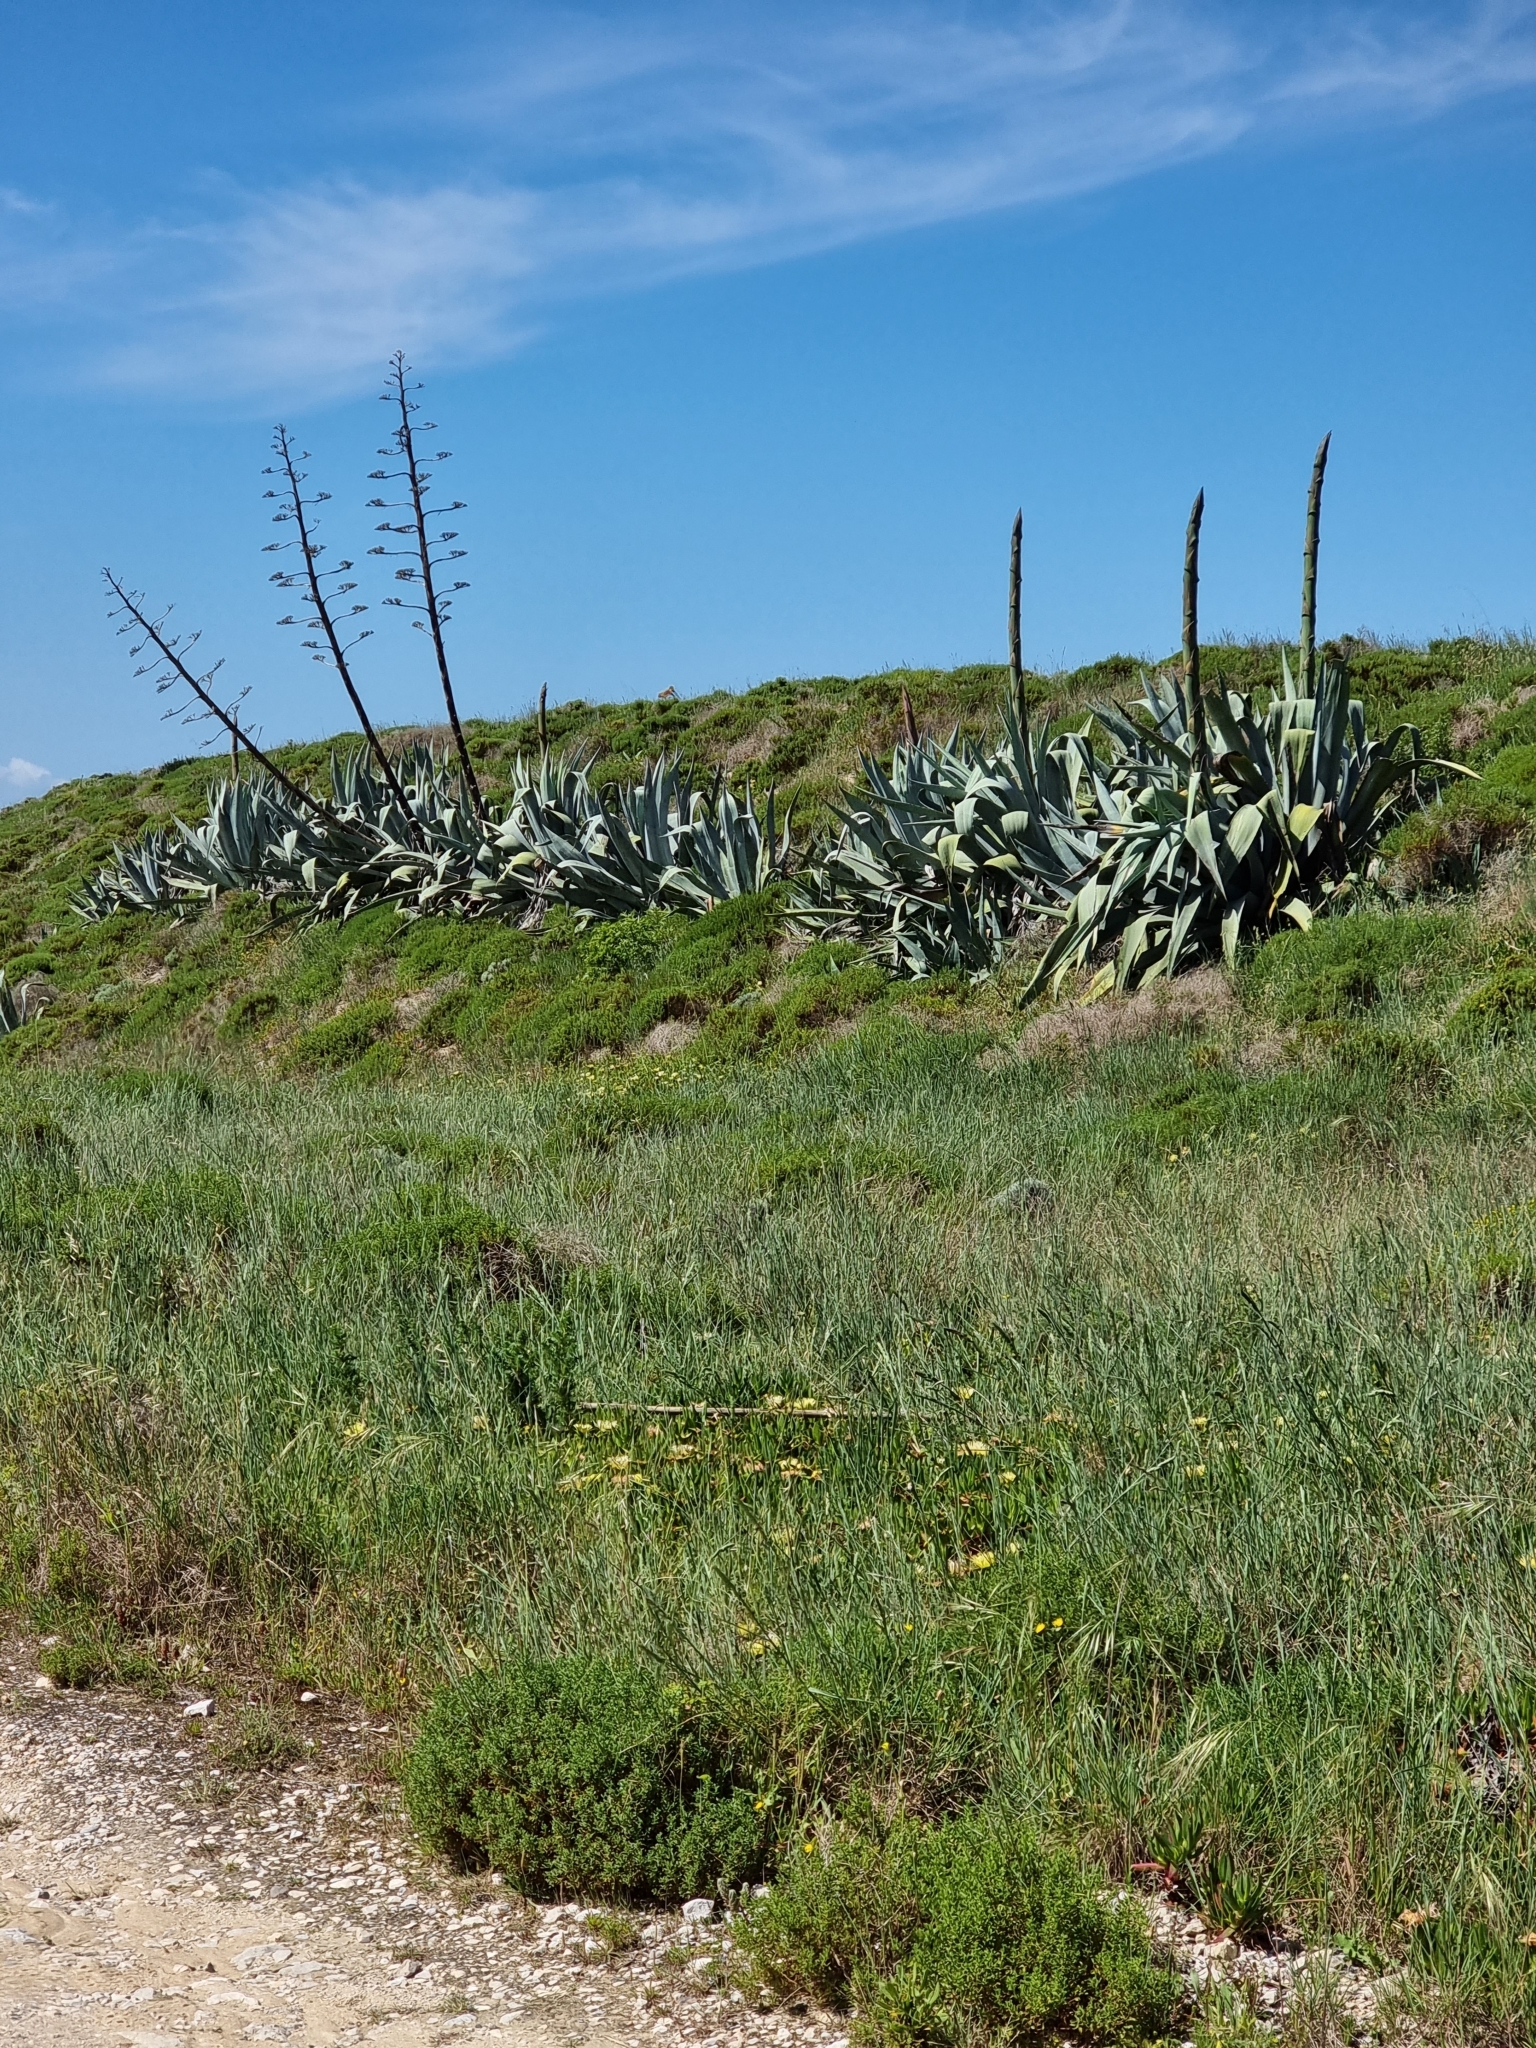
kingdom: Plantae
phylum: Tracheophyta
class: Liliopsida
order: Asparagales
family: Asparagaceae
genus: Agave
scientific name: Agave americana
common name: Centuryplant
